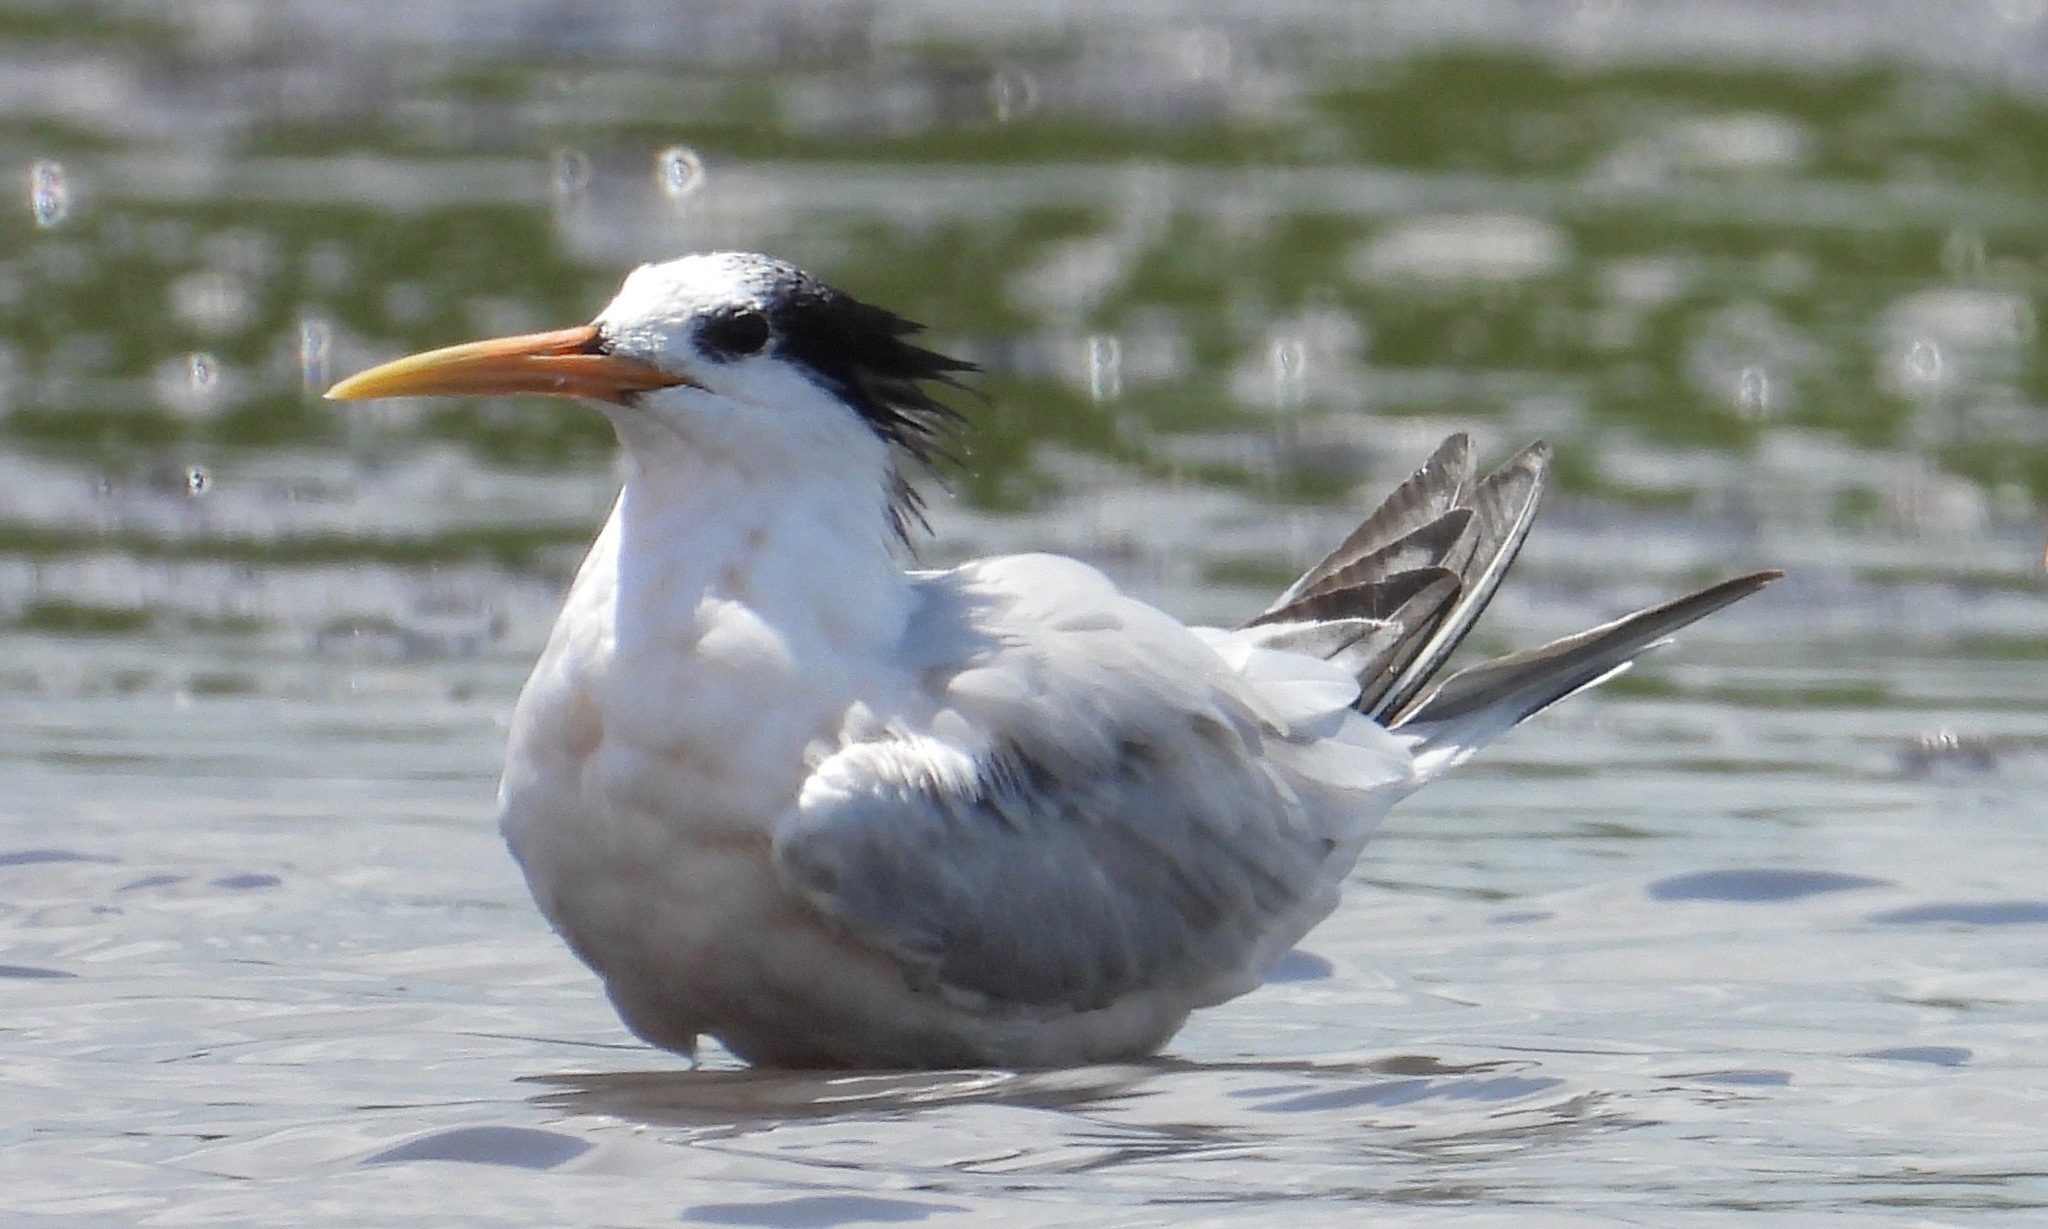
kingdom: Animalia
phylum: Chordata
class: Aves
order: Charadriiformes
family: Laridae
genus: Thalasseus
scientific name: Thalasseus elegans
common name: Elegant tern
